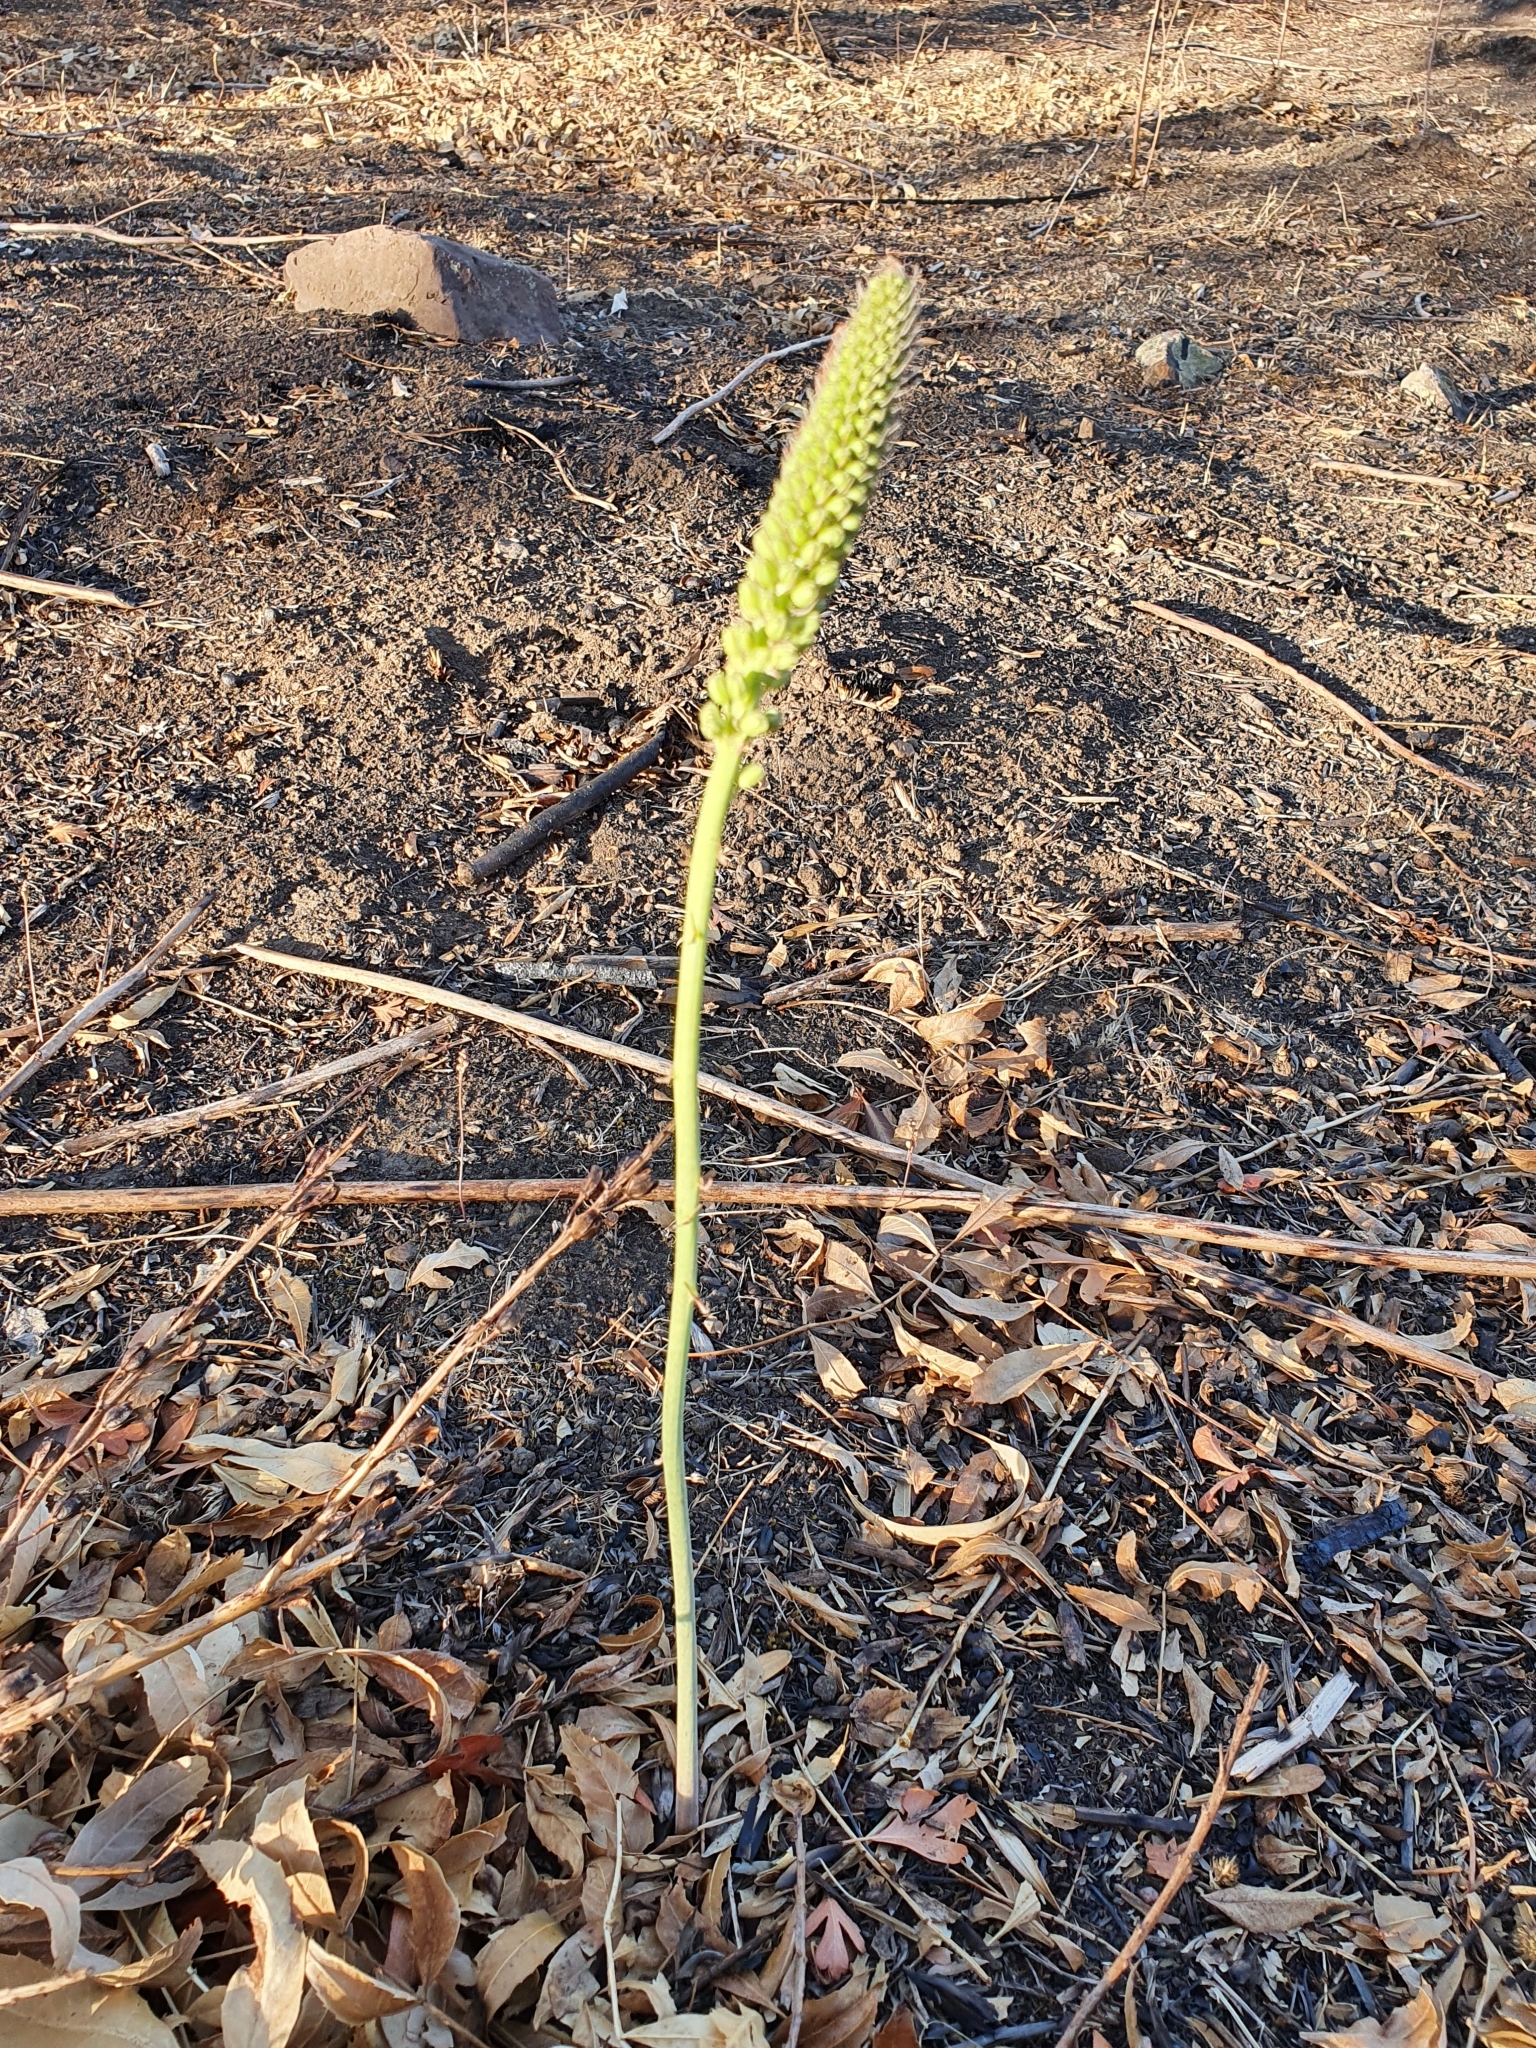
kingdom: Plantae
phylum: Tracheophyta
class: Liliopsida
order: Asparagales
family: Asparagaceae
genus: Drimia
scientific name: Drimia anthericoides
